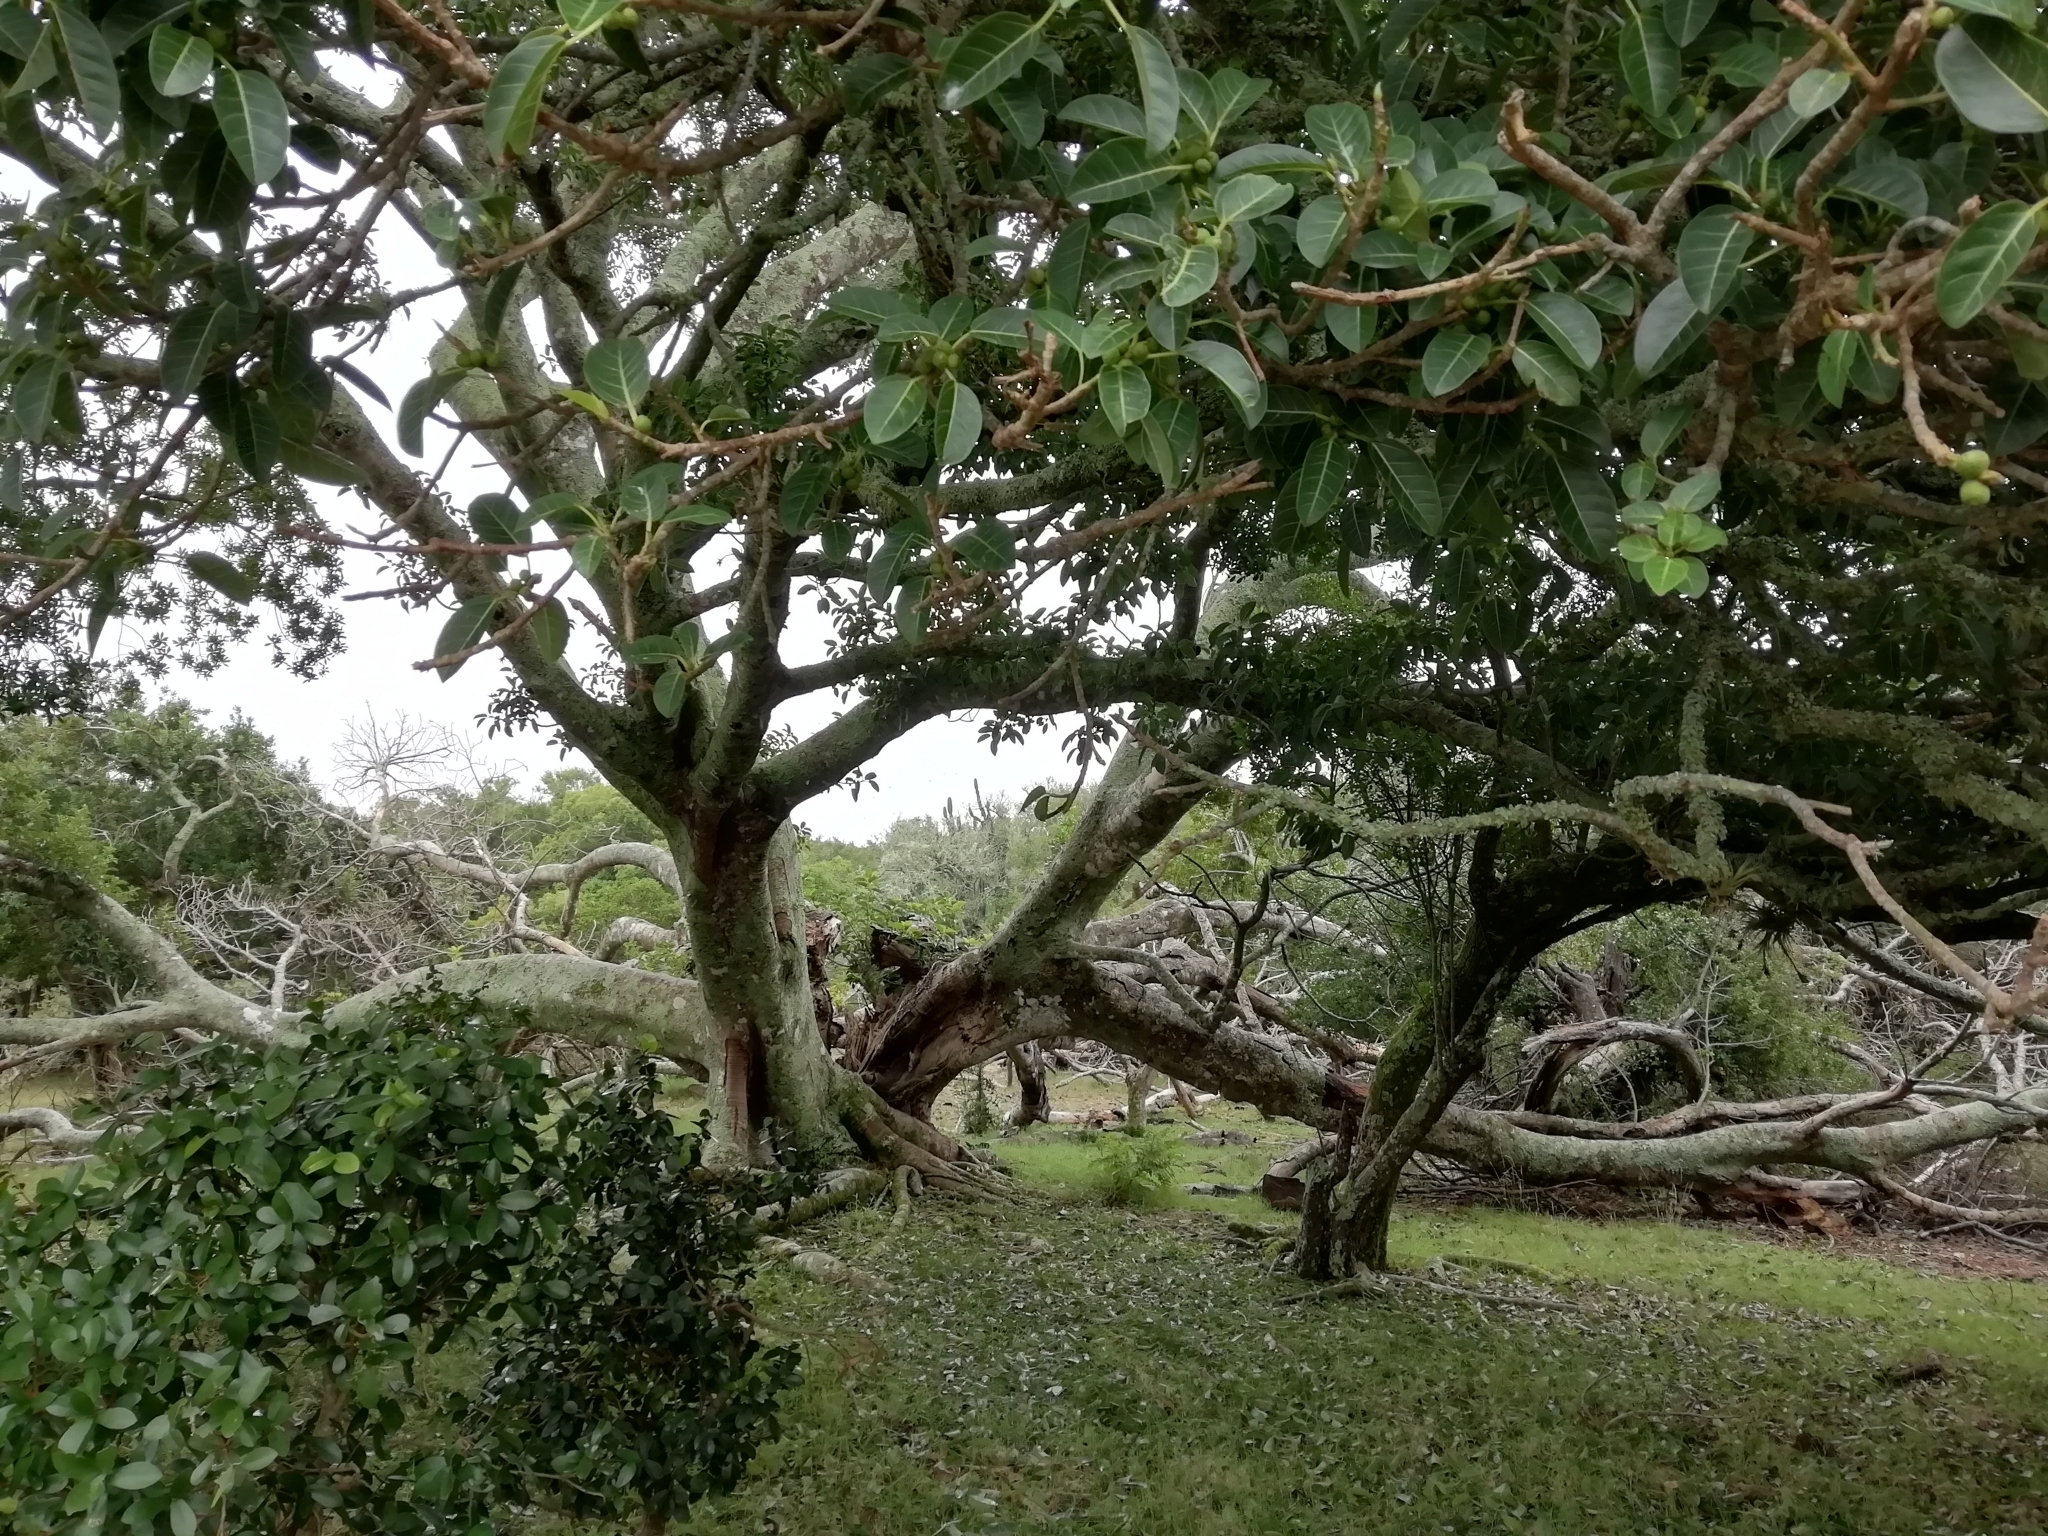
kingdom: Plantae
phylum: Tracheophyta
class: Magnoliopsida
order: Rosales
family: Moraceae
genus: Ficus
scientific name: Ficus luschnathiana
